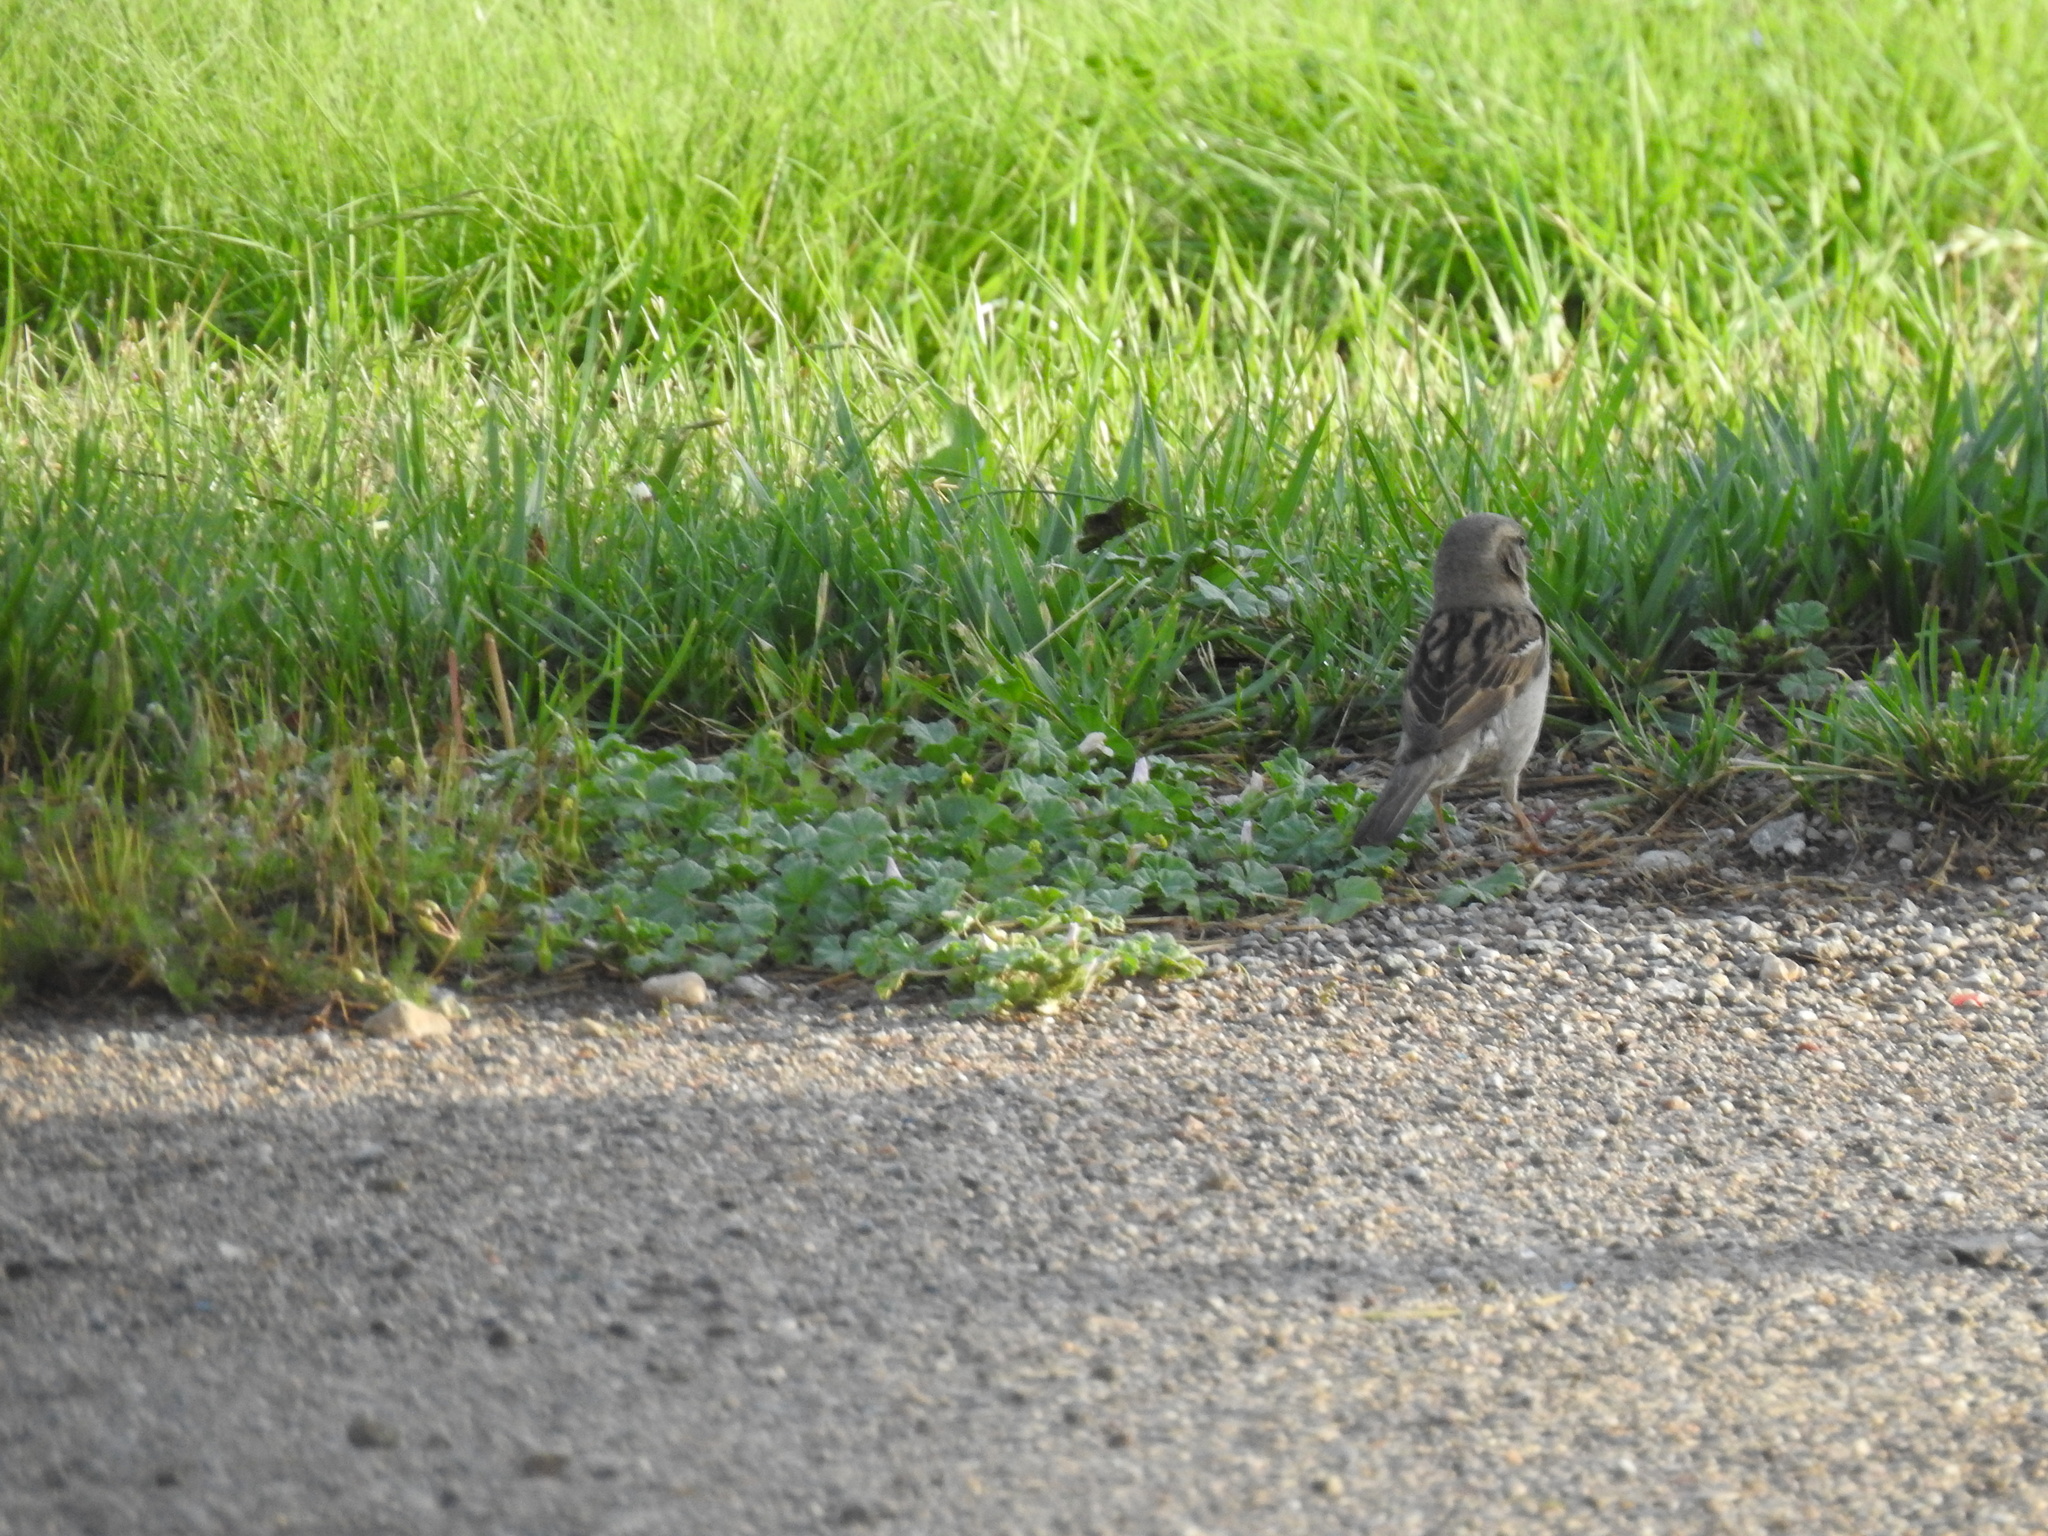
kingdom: Animalia
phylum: Chordata
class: Aves
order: Passeriformes
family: Passeridae
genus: Passer
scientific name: Passer domesticus
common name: House sparrow
